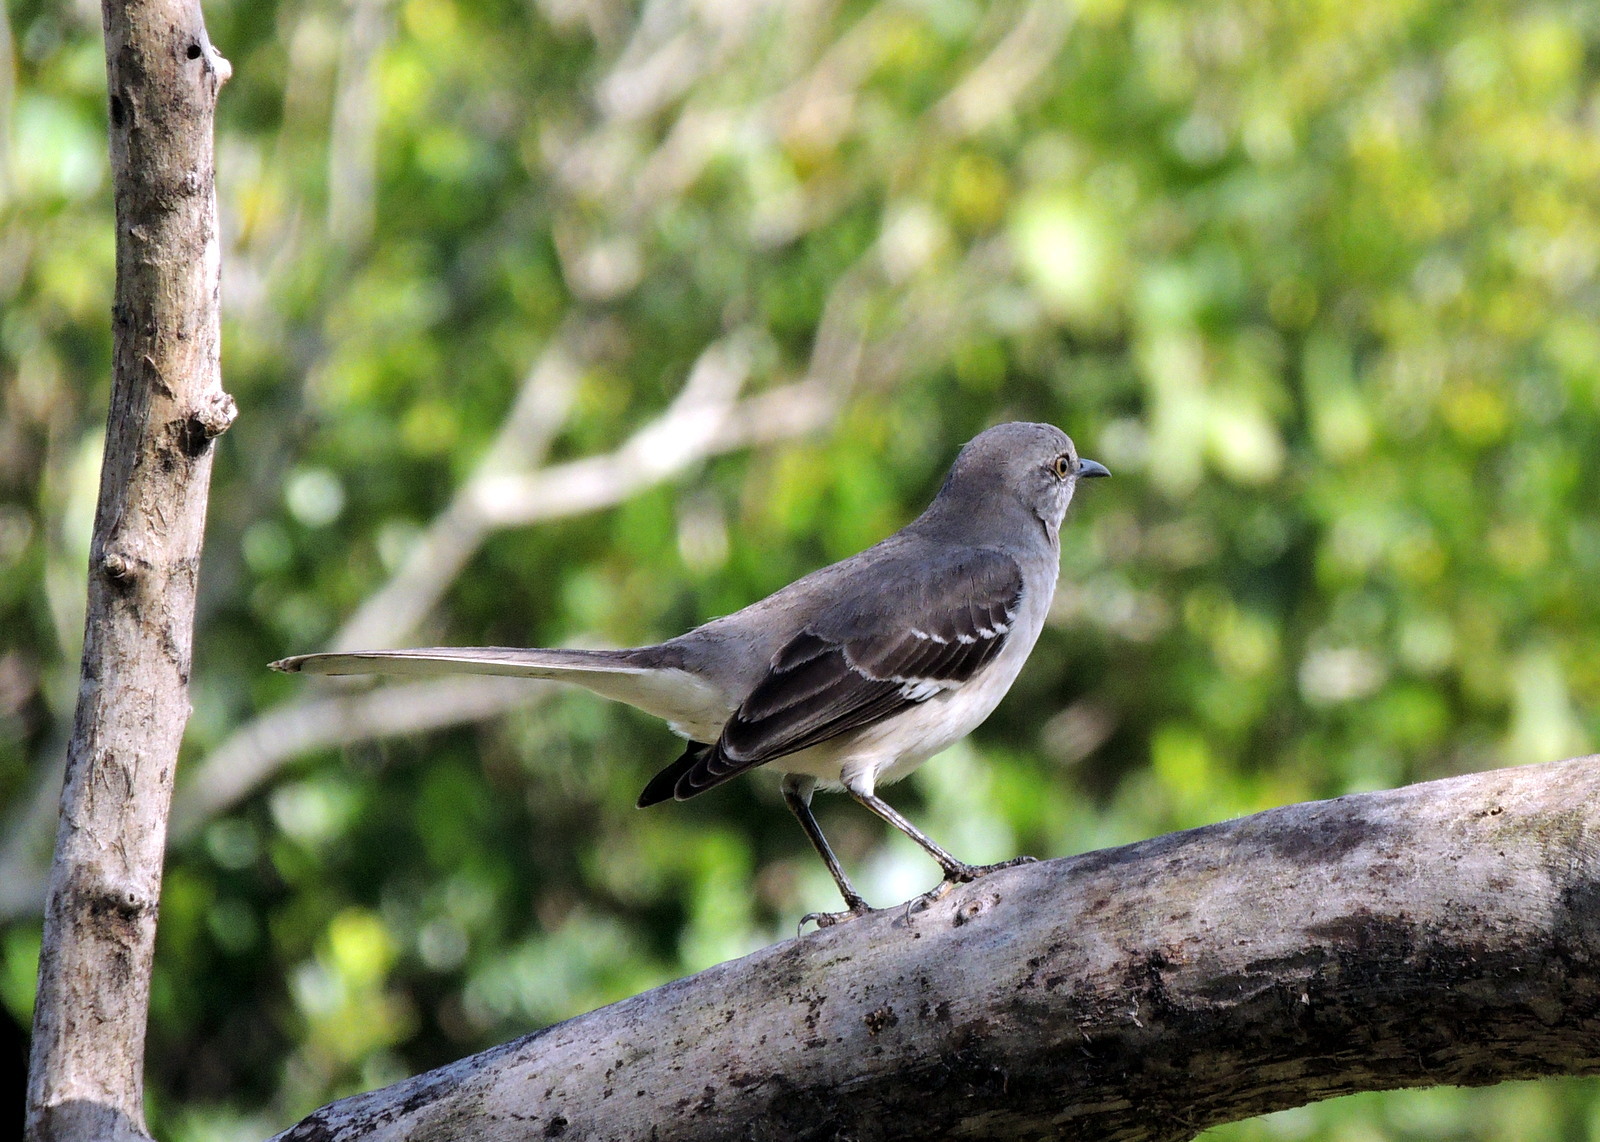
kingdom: Animalia
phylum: Chordata
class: Aves
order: Passeriformes
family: Mimidae
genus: Mimus
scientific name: Mimus polyglottos
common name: Northern mockingbird
